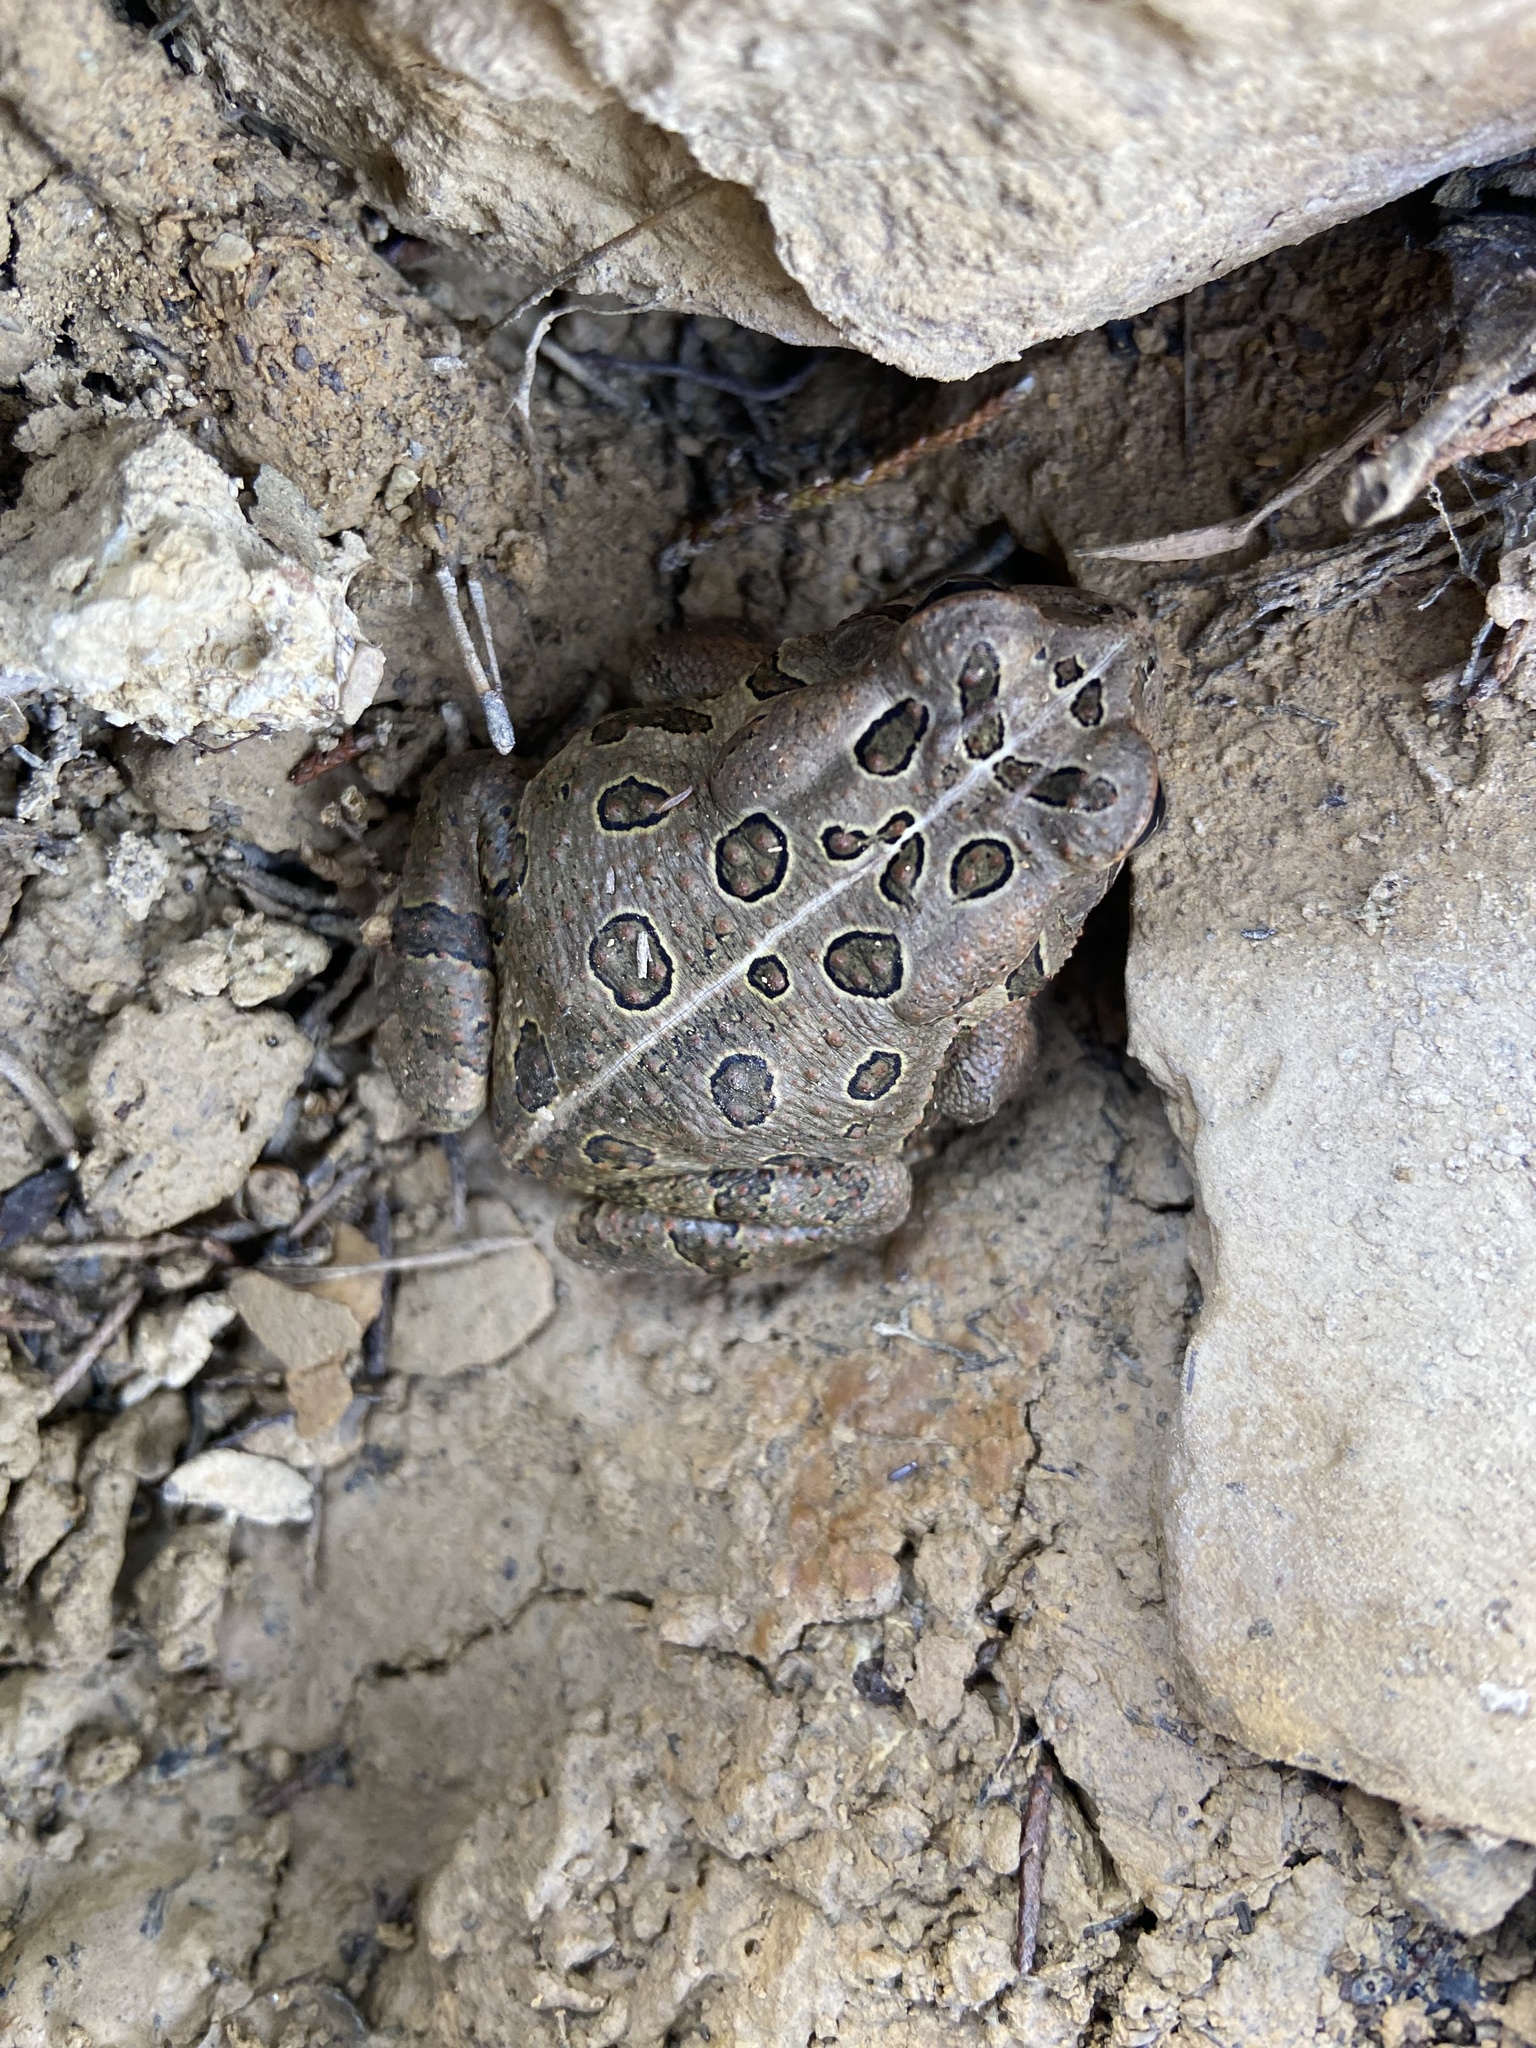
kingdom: Animalia
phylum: Chordata
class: Amphibia
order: Anura
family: Bufonidae
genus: Anaxyrus
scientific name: Anaxyrus fowleri
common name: Fowler's toad
